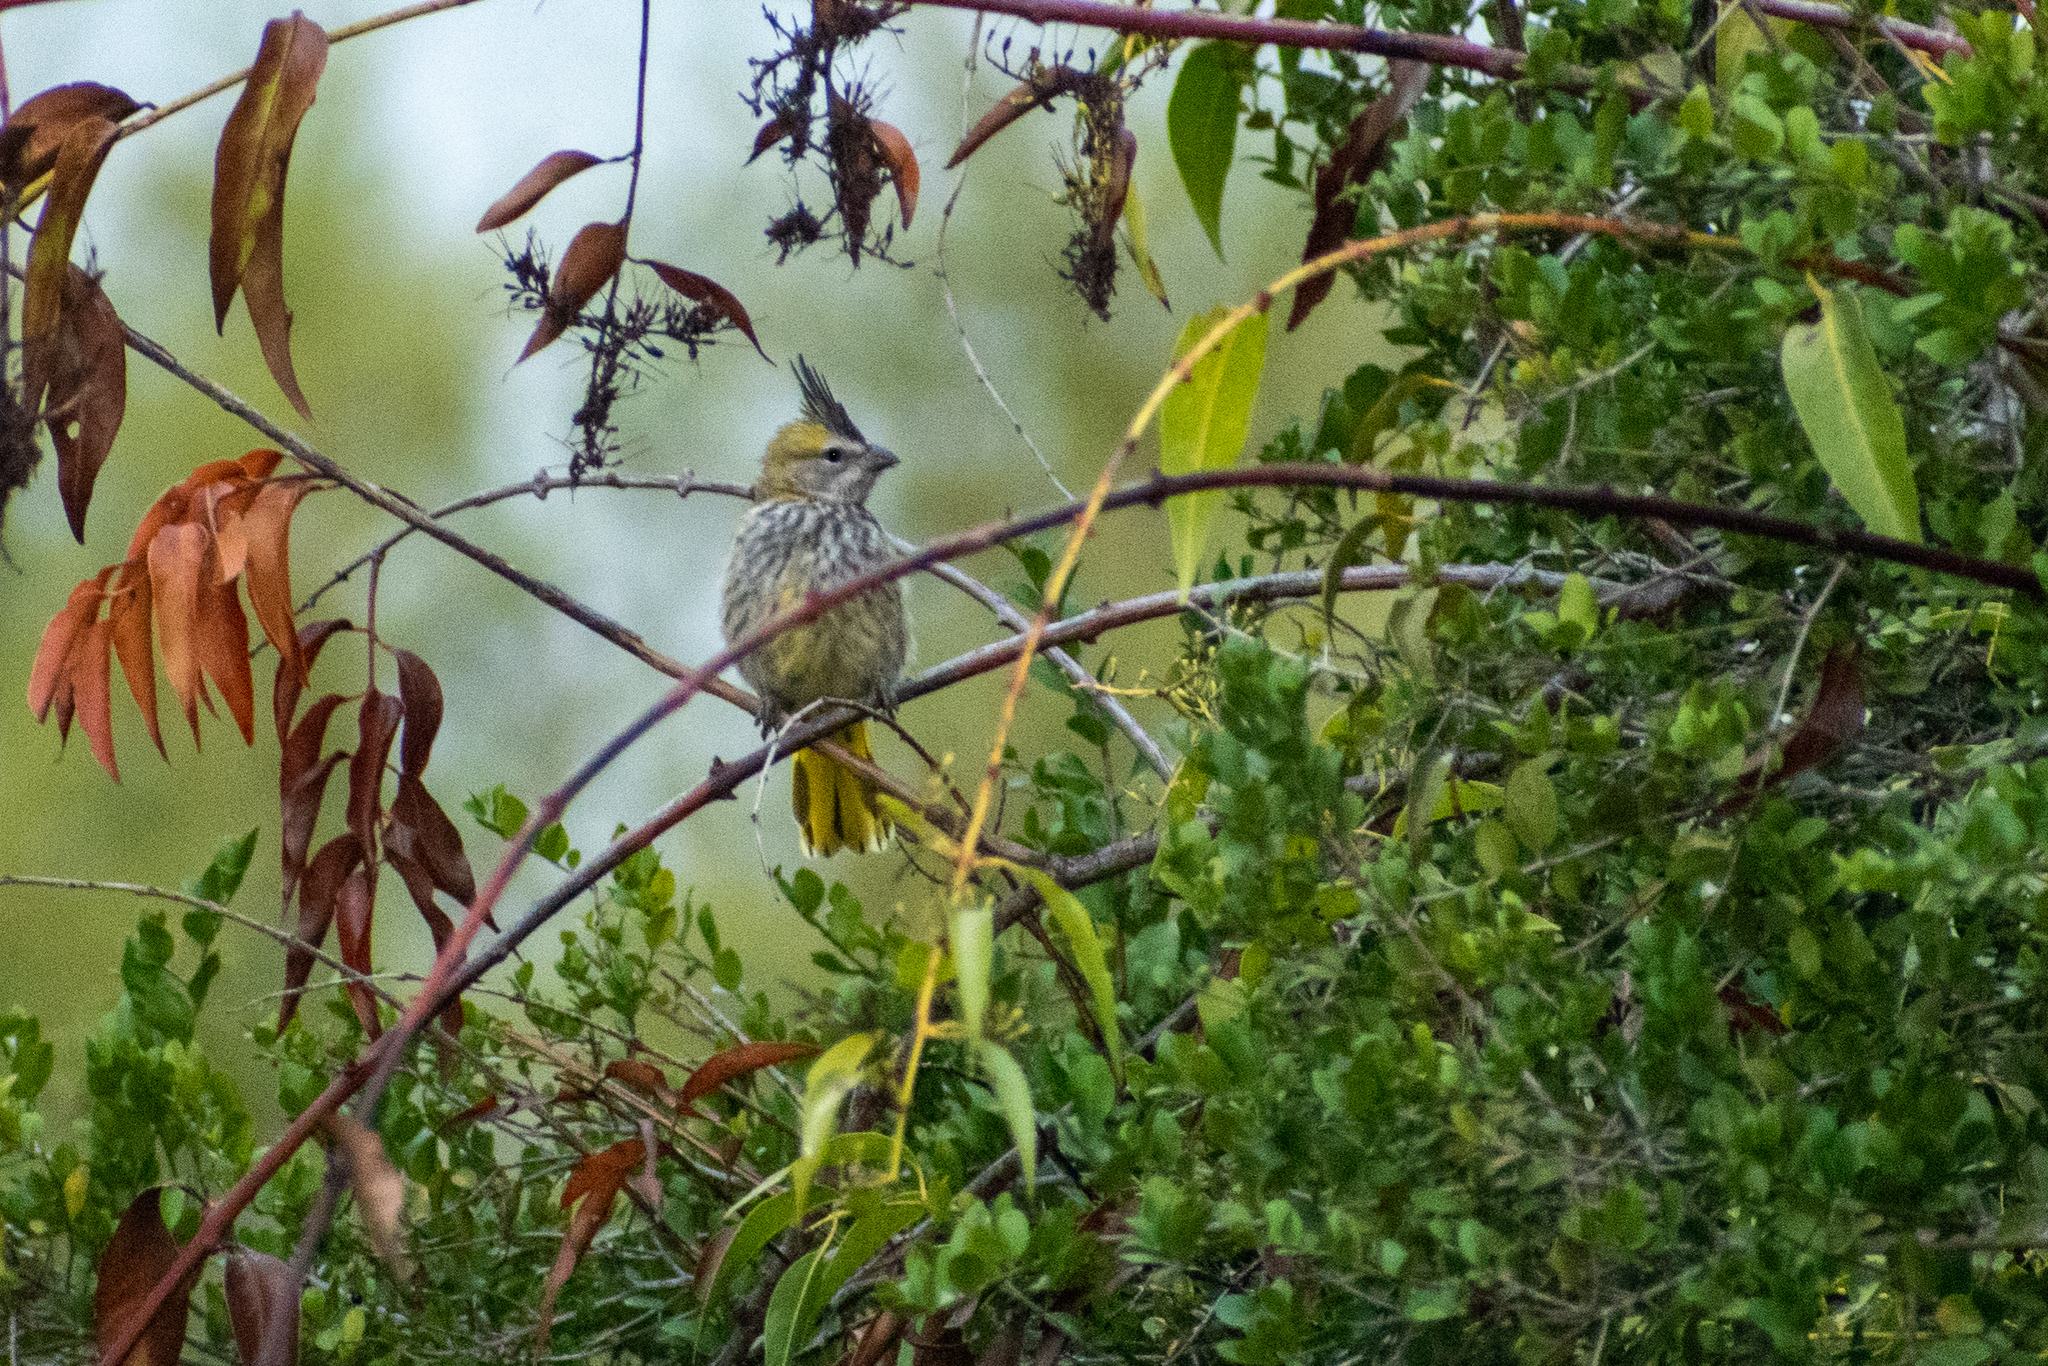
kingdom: Animalia
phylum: Chordata
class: Aves
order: Passeriformes
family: Thraupidae
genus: Gubernatrix
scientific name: Gubernatrix cristata
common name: Yellow cardinal
